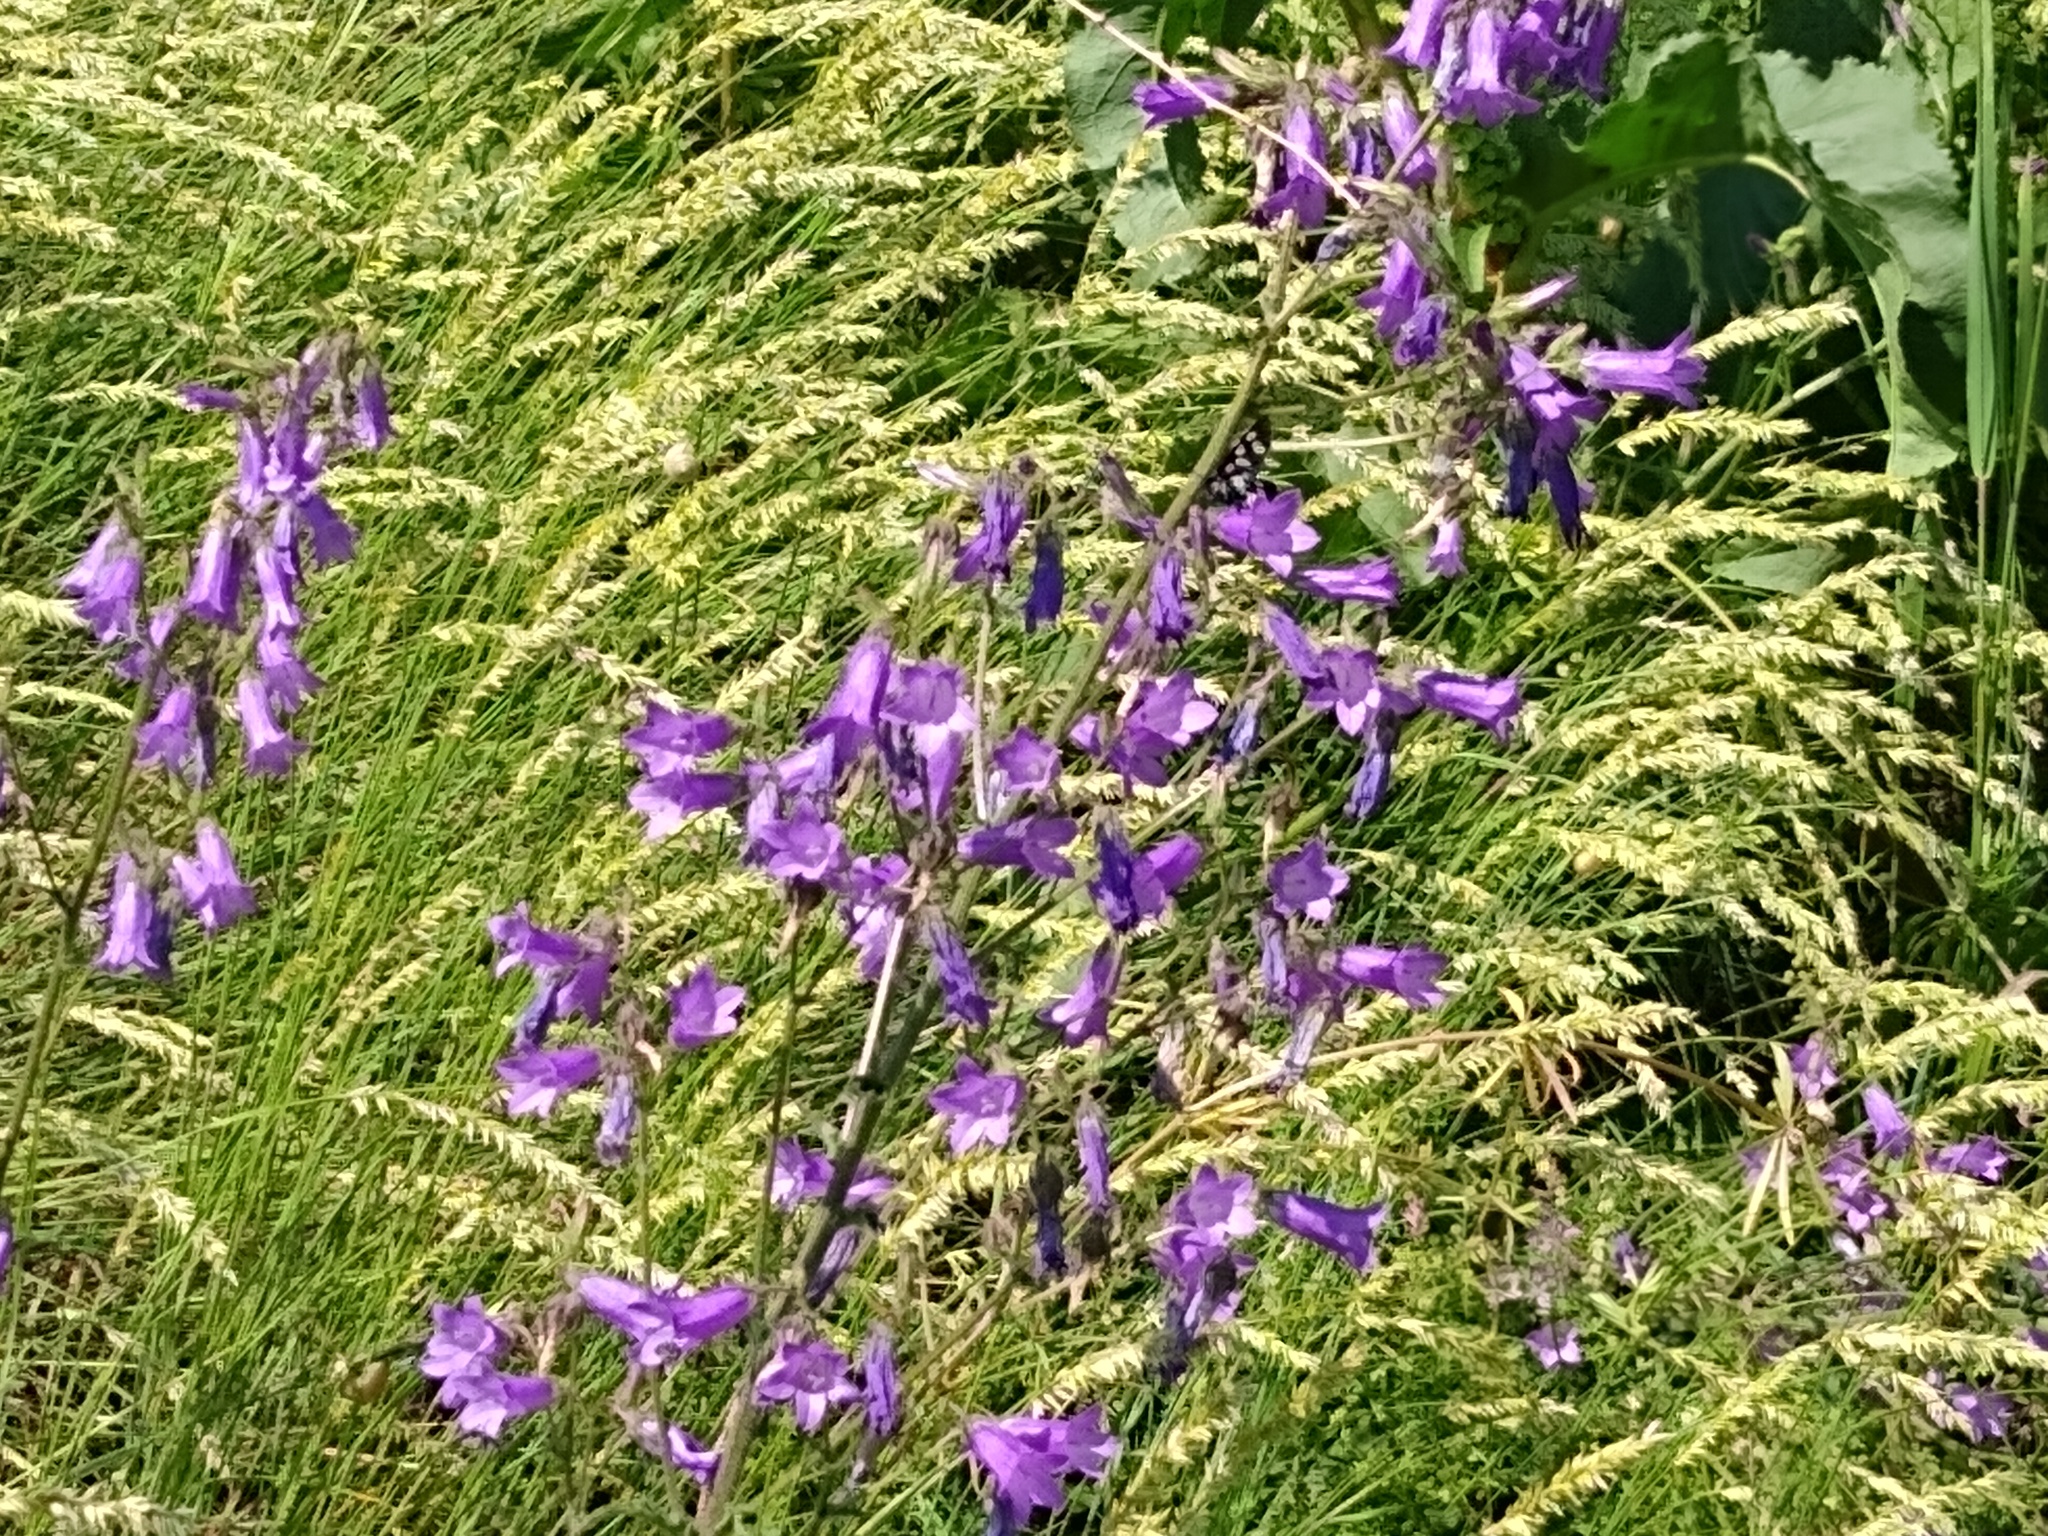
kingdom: Plantae
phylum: Tracheophyta
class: Magnoliopsida
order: Asterales
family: Campanulaceae
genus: Campanula
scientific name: Campanula sibirica
